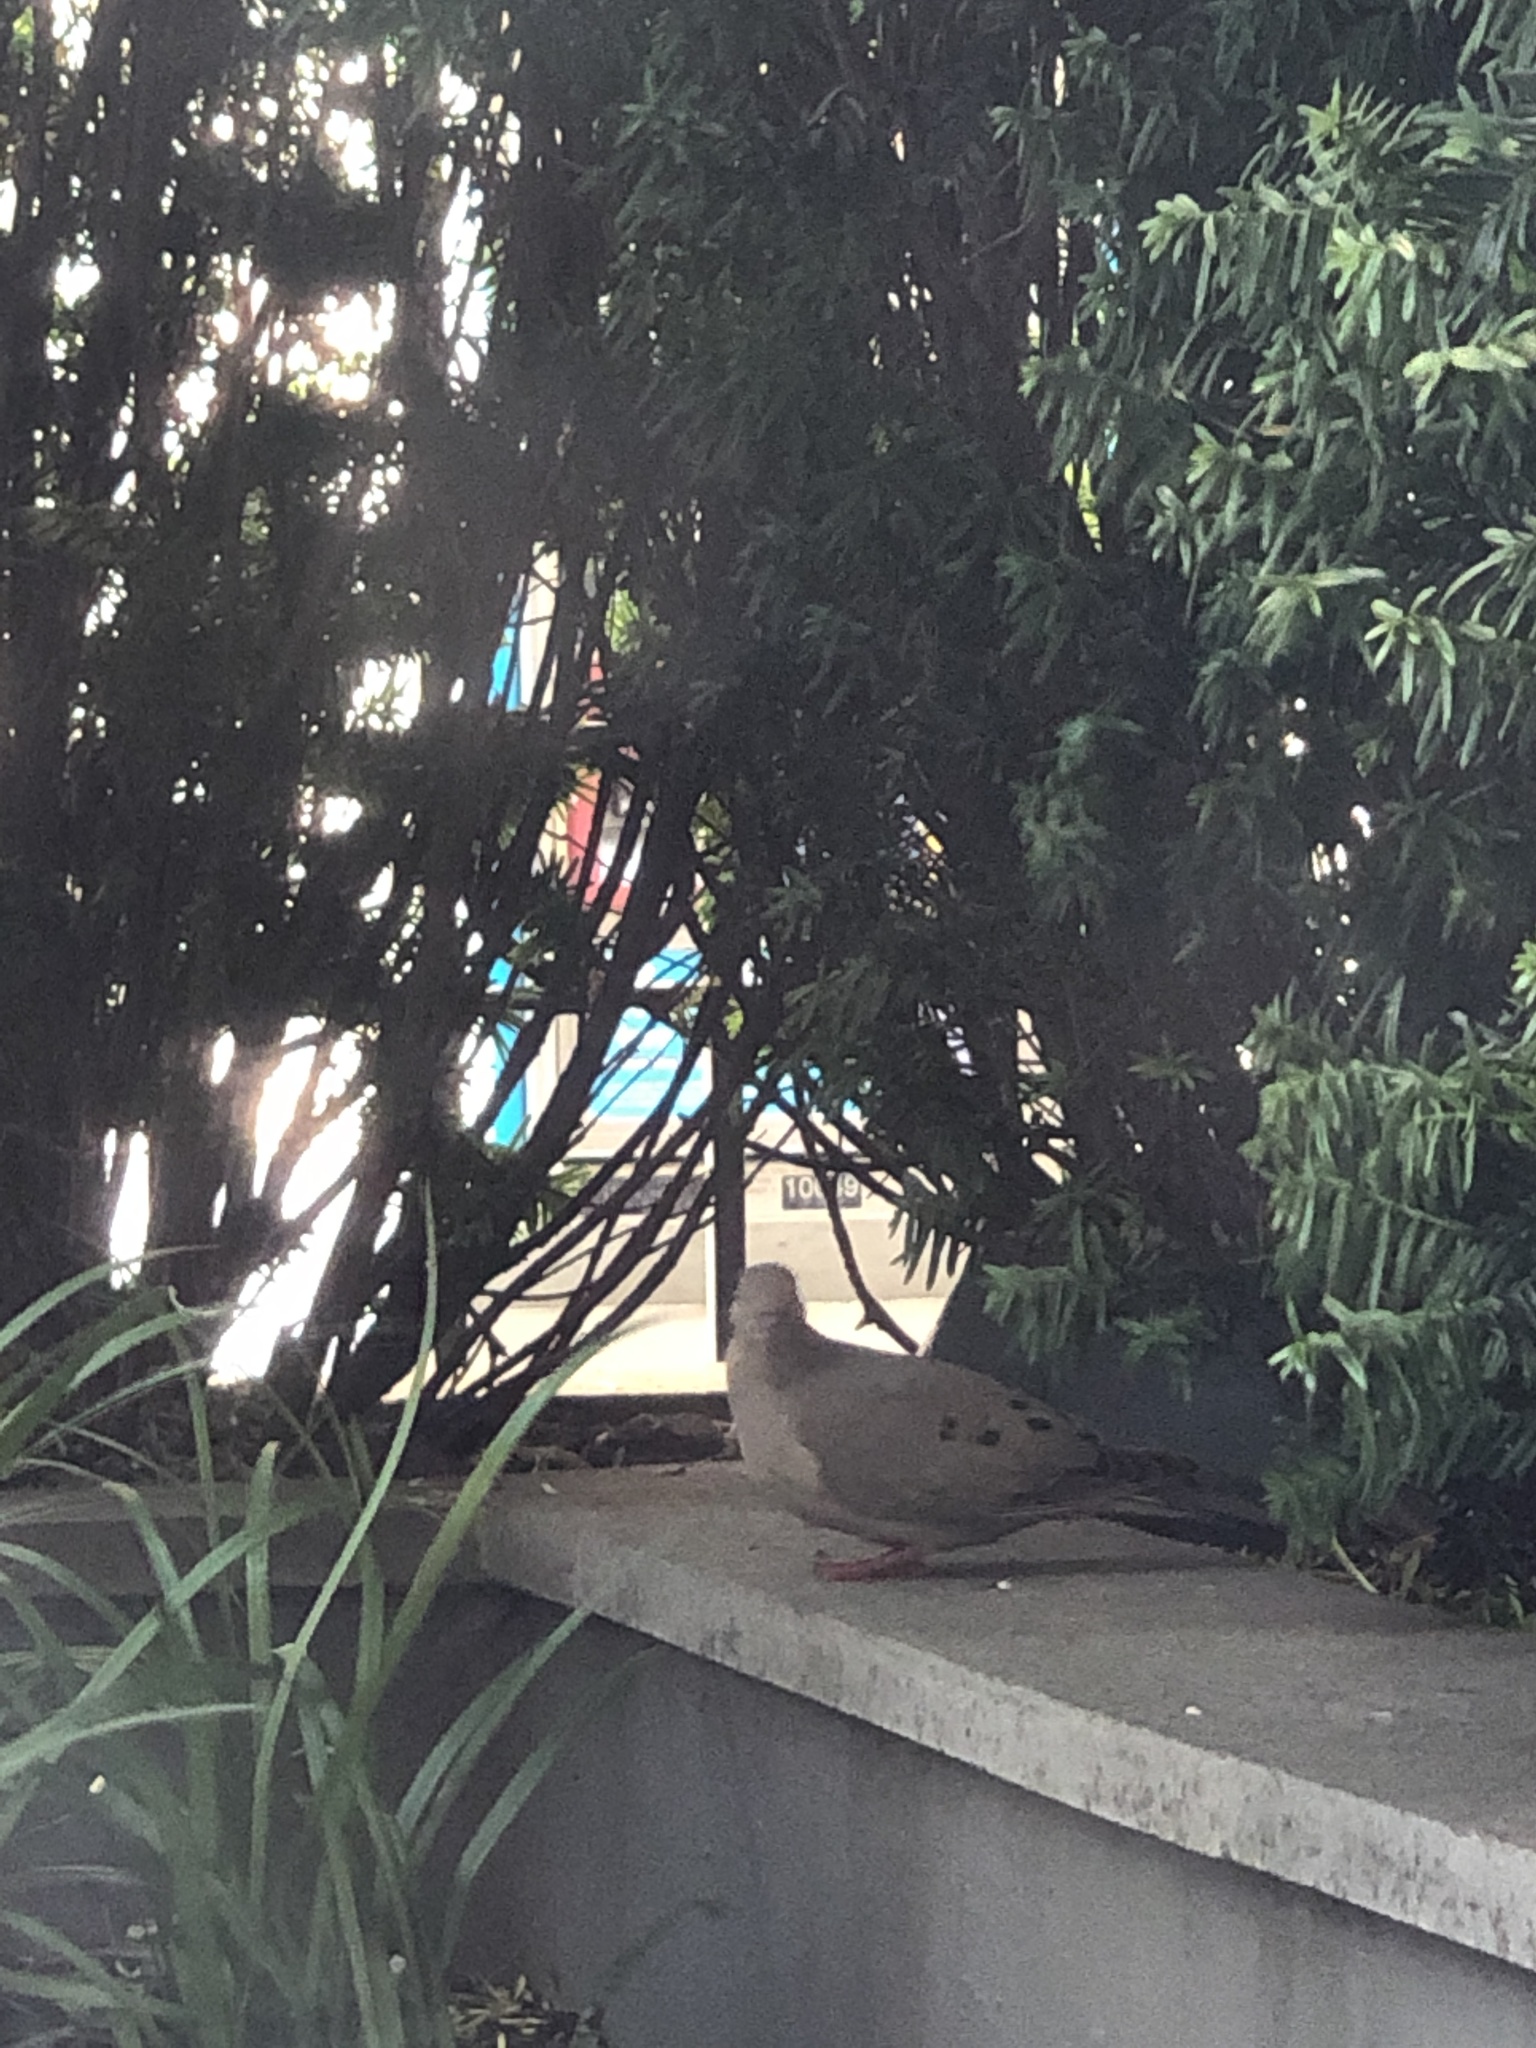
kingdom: Animalia
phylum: Chordata
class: Aves
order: Columbiformes
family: Columbidae
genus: Zenaida
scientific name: Zenaida macroura
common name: Mourning dove
